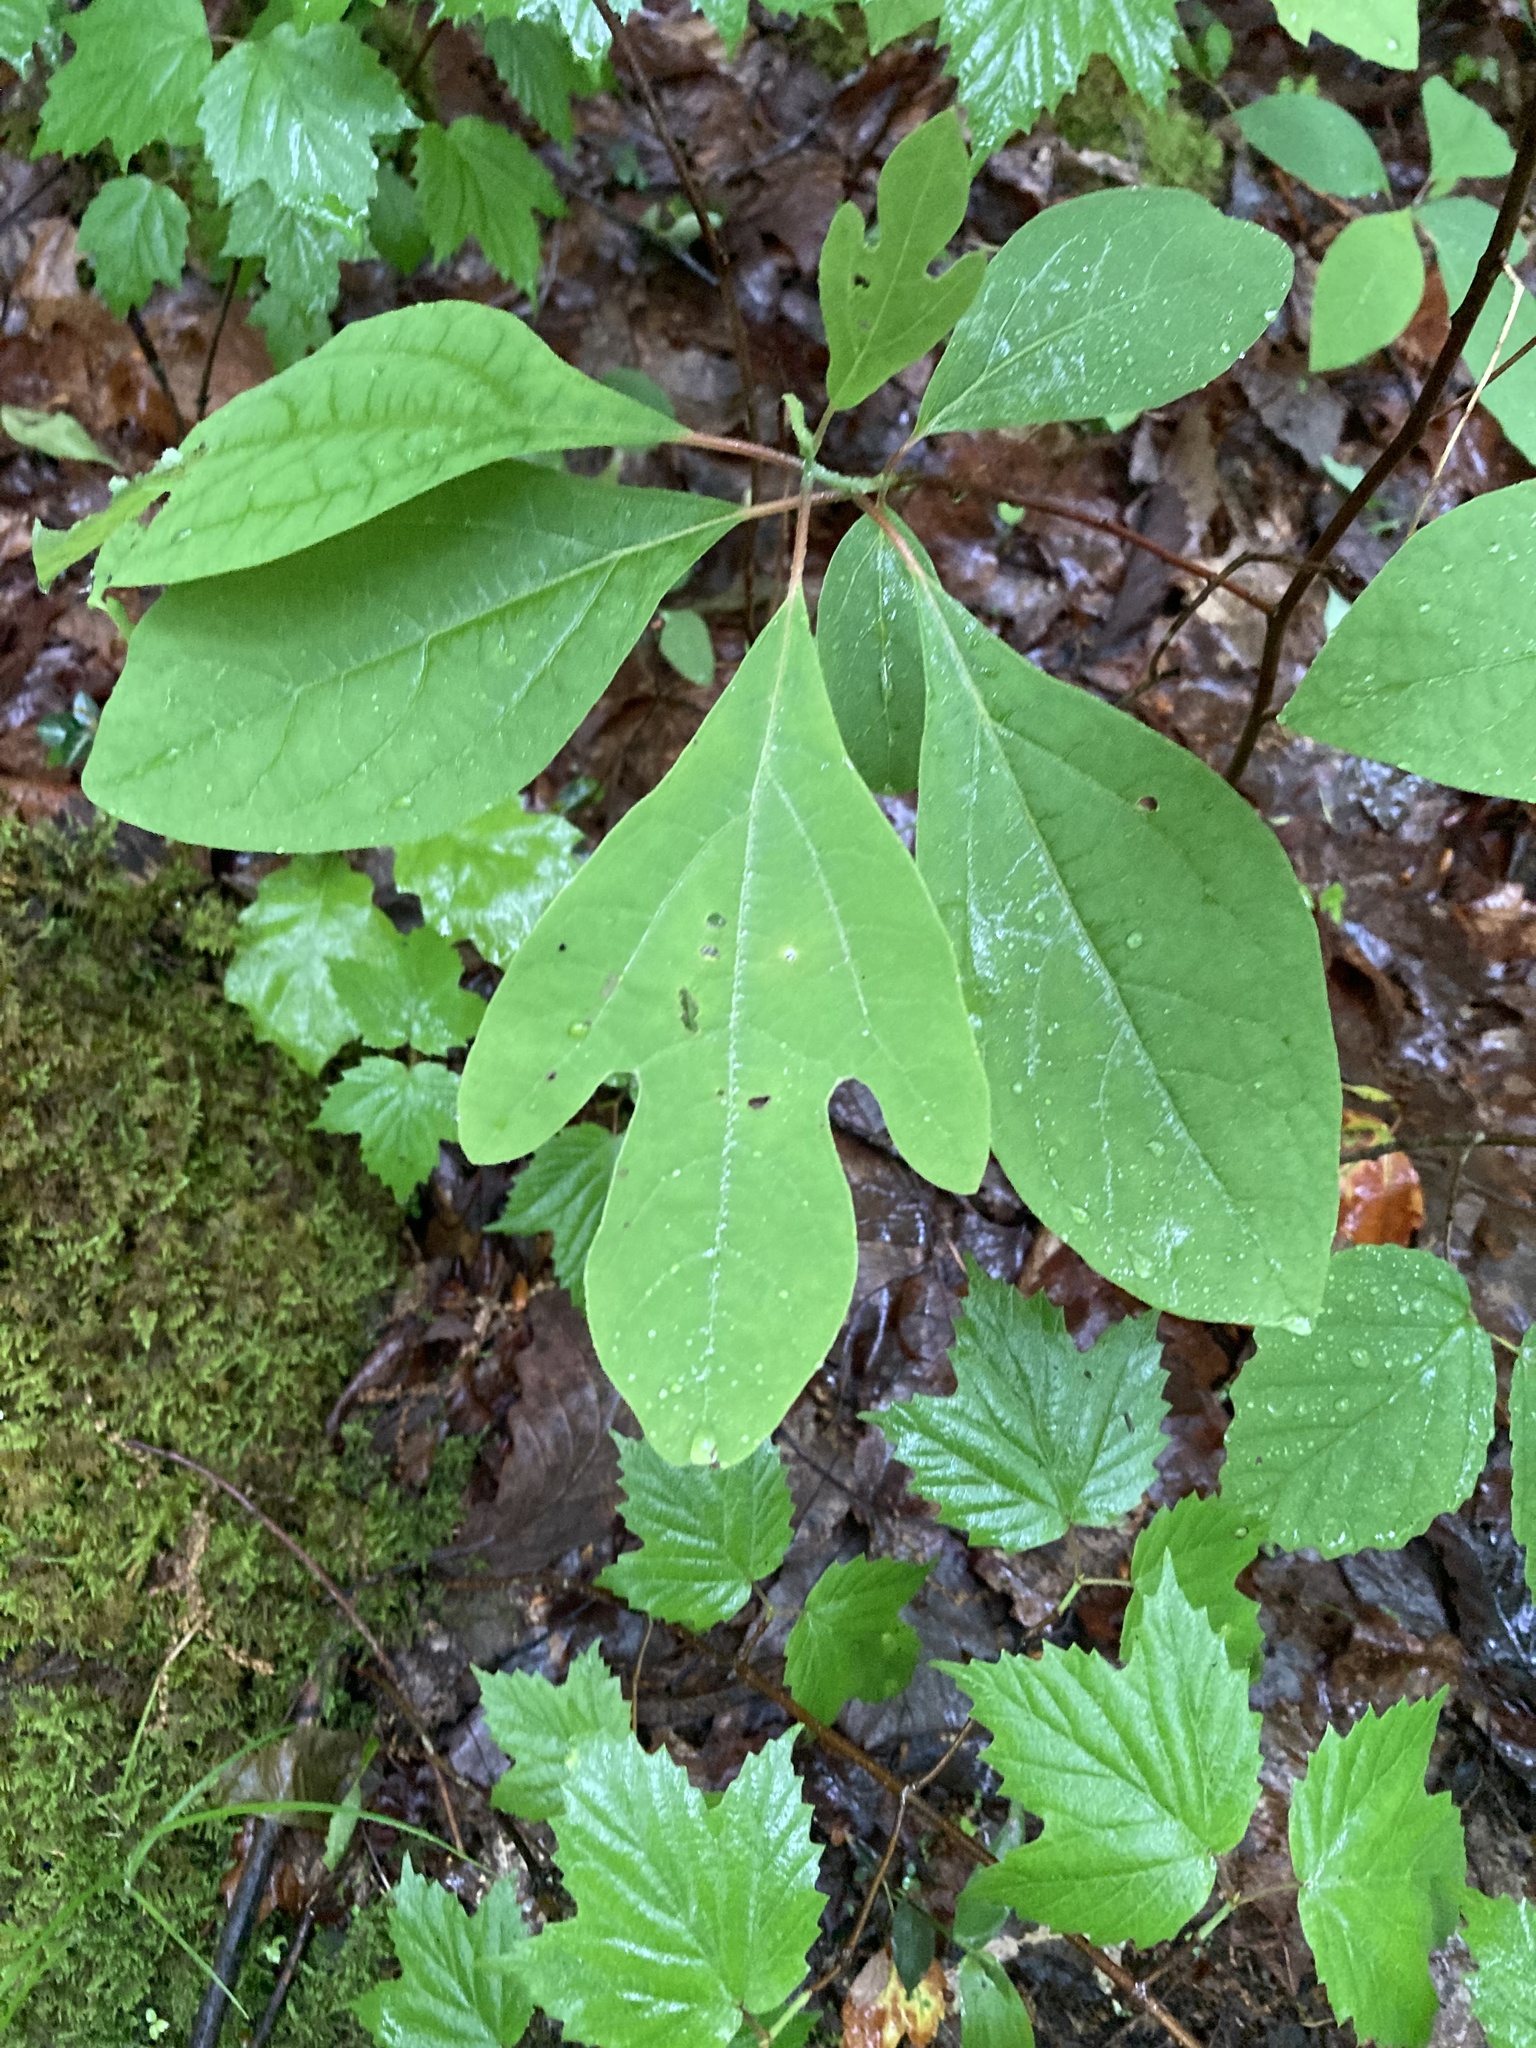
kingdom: Plantae
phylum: Tracheophyta
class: Magnoliopsida
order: Laurales
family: Lauraceae
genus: Sassafras
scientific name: Sassafras albidum
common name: Sassafras
